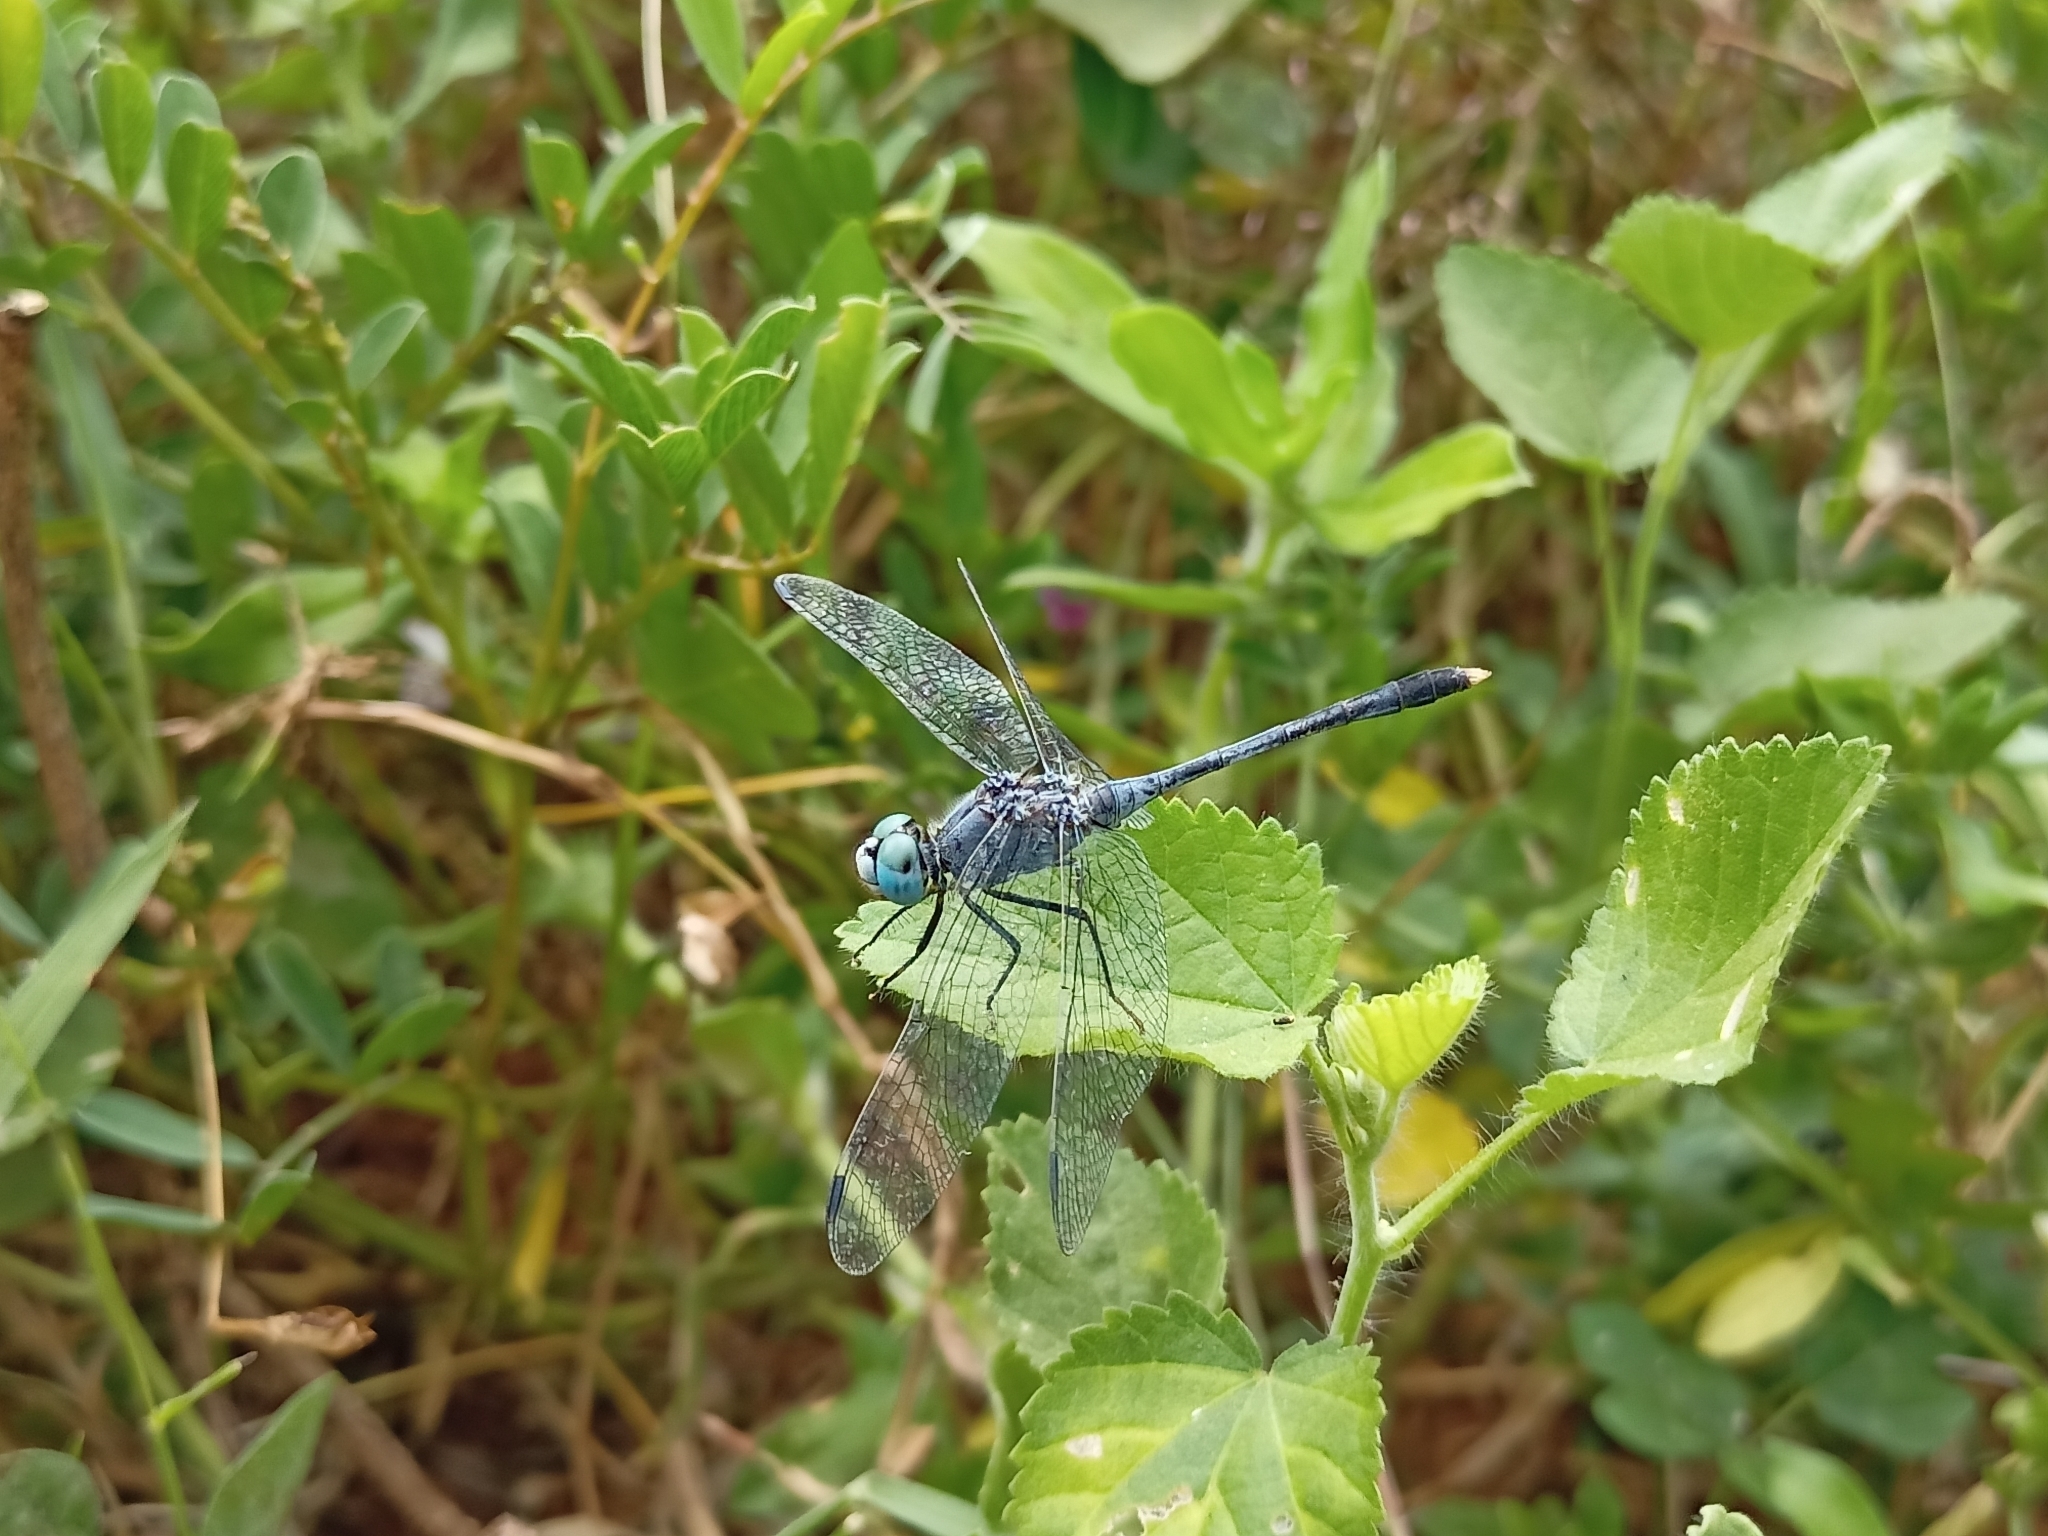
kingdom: Animalia
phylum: Arthropoda
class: Insecta
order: Odonata
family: Libellulidae
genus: Diplacodes
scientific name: Diplacodes trivialis
